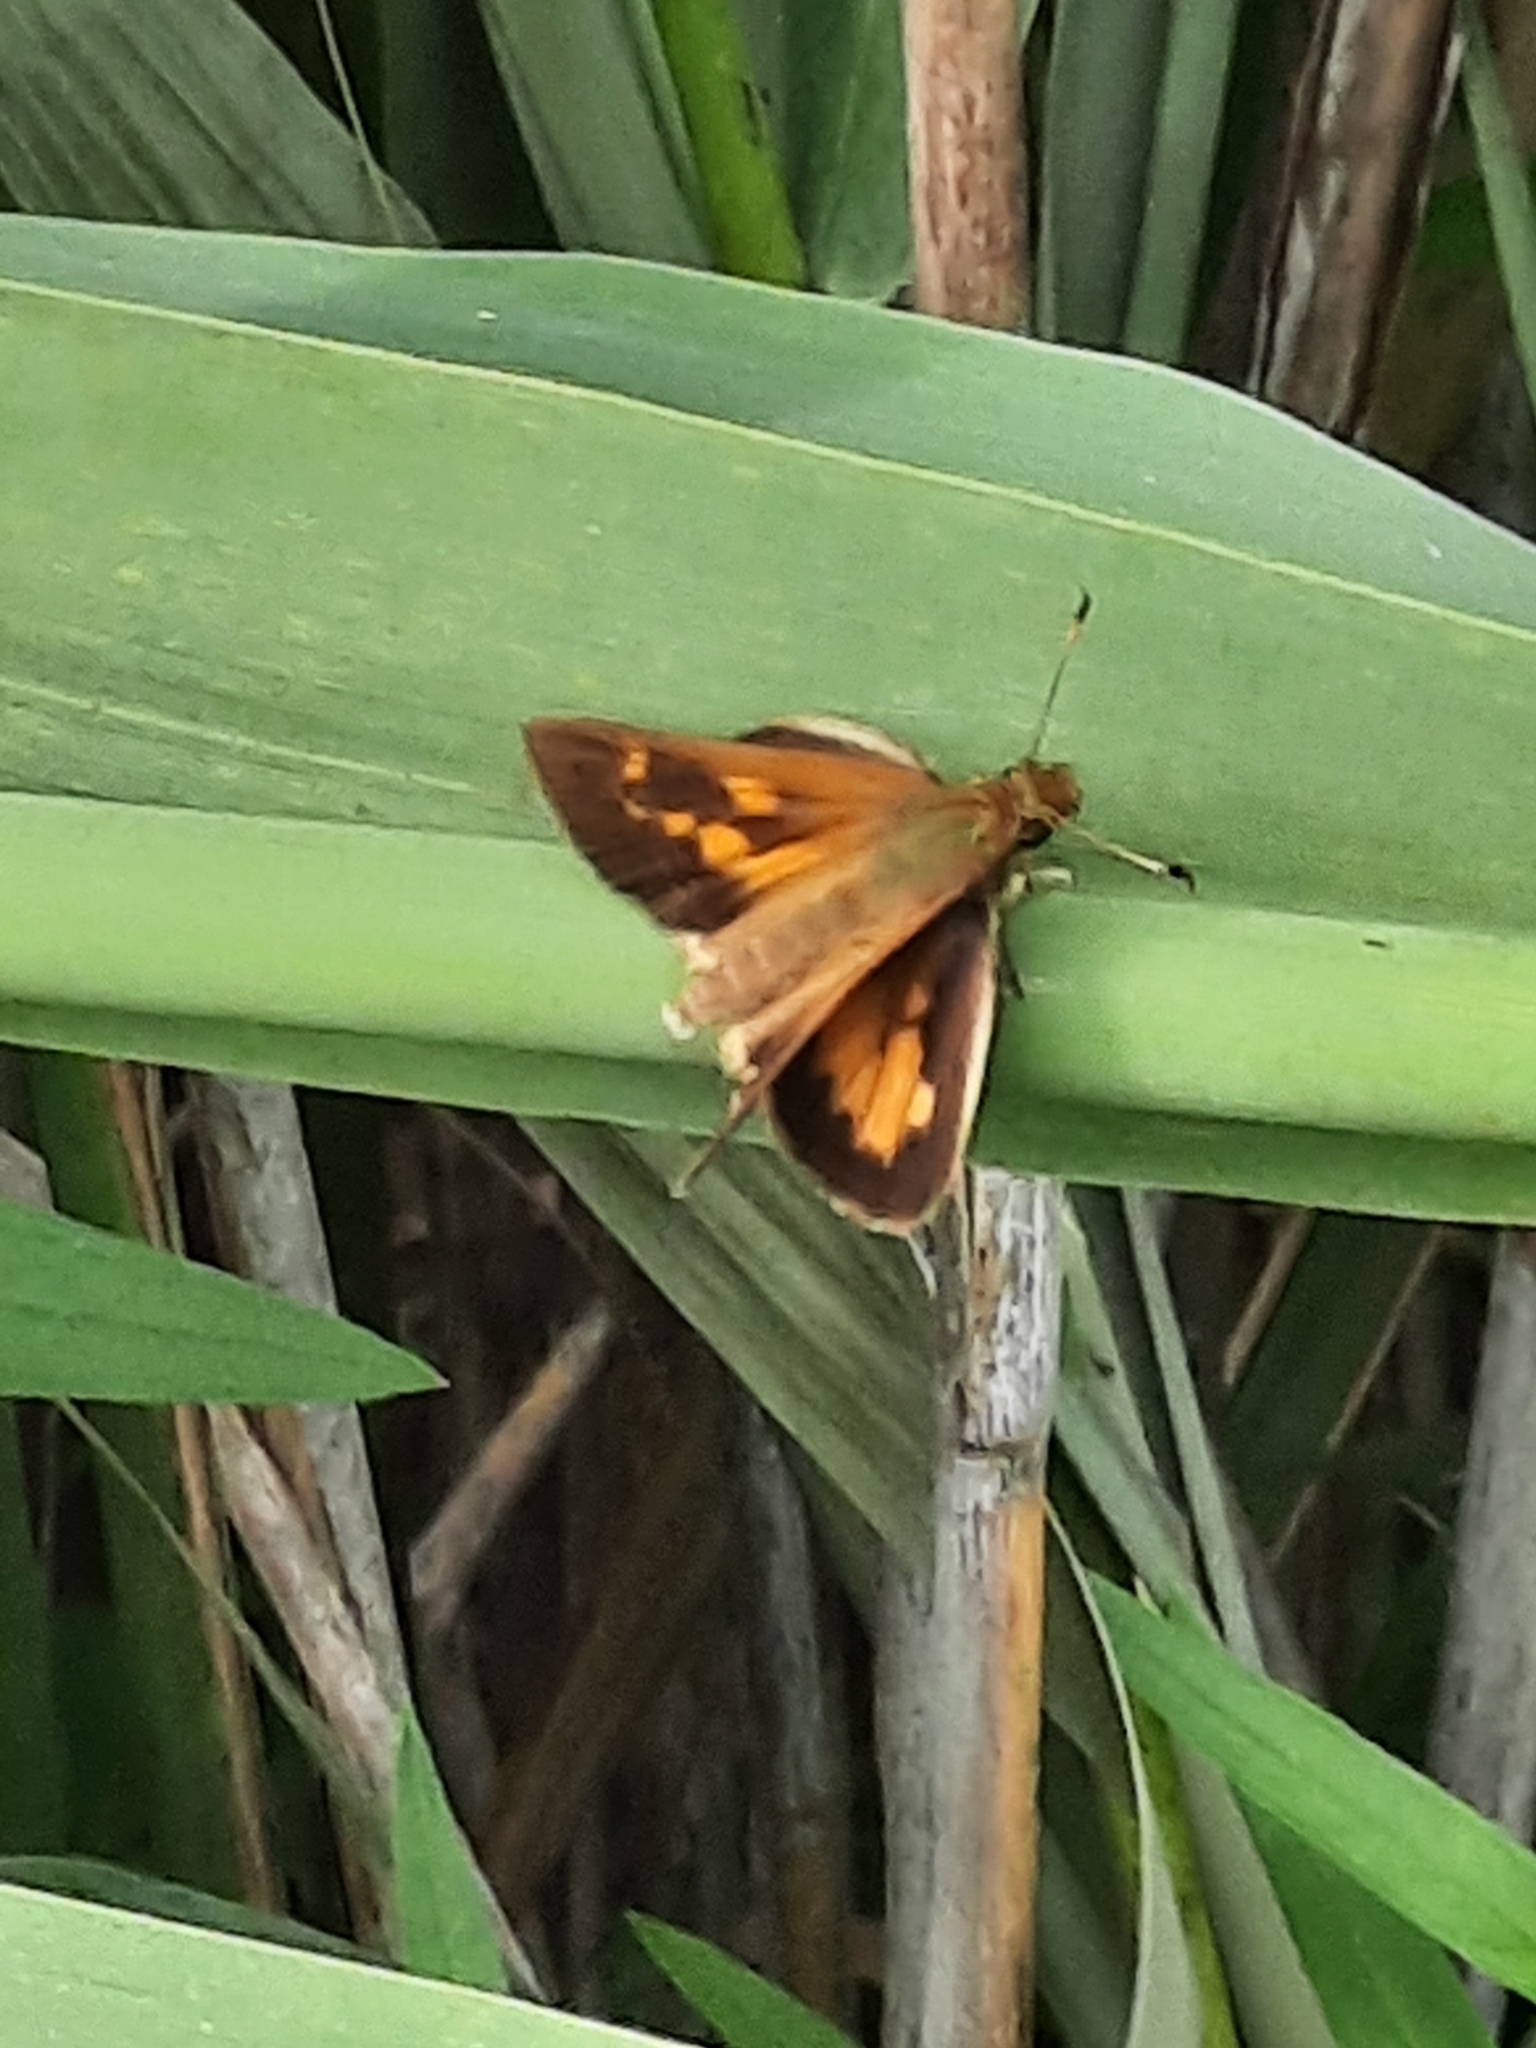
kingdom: Animalia
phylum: Arthropoda
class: Insecta
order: Lepidoptera
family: Hesperiidae
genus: Poanes
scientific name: Poanes viator
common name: Broad-winged skipper
